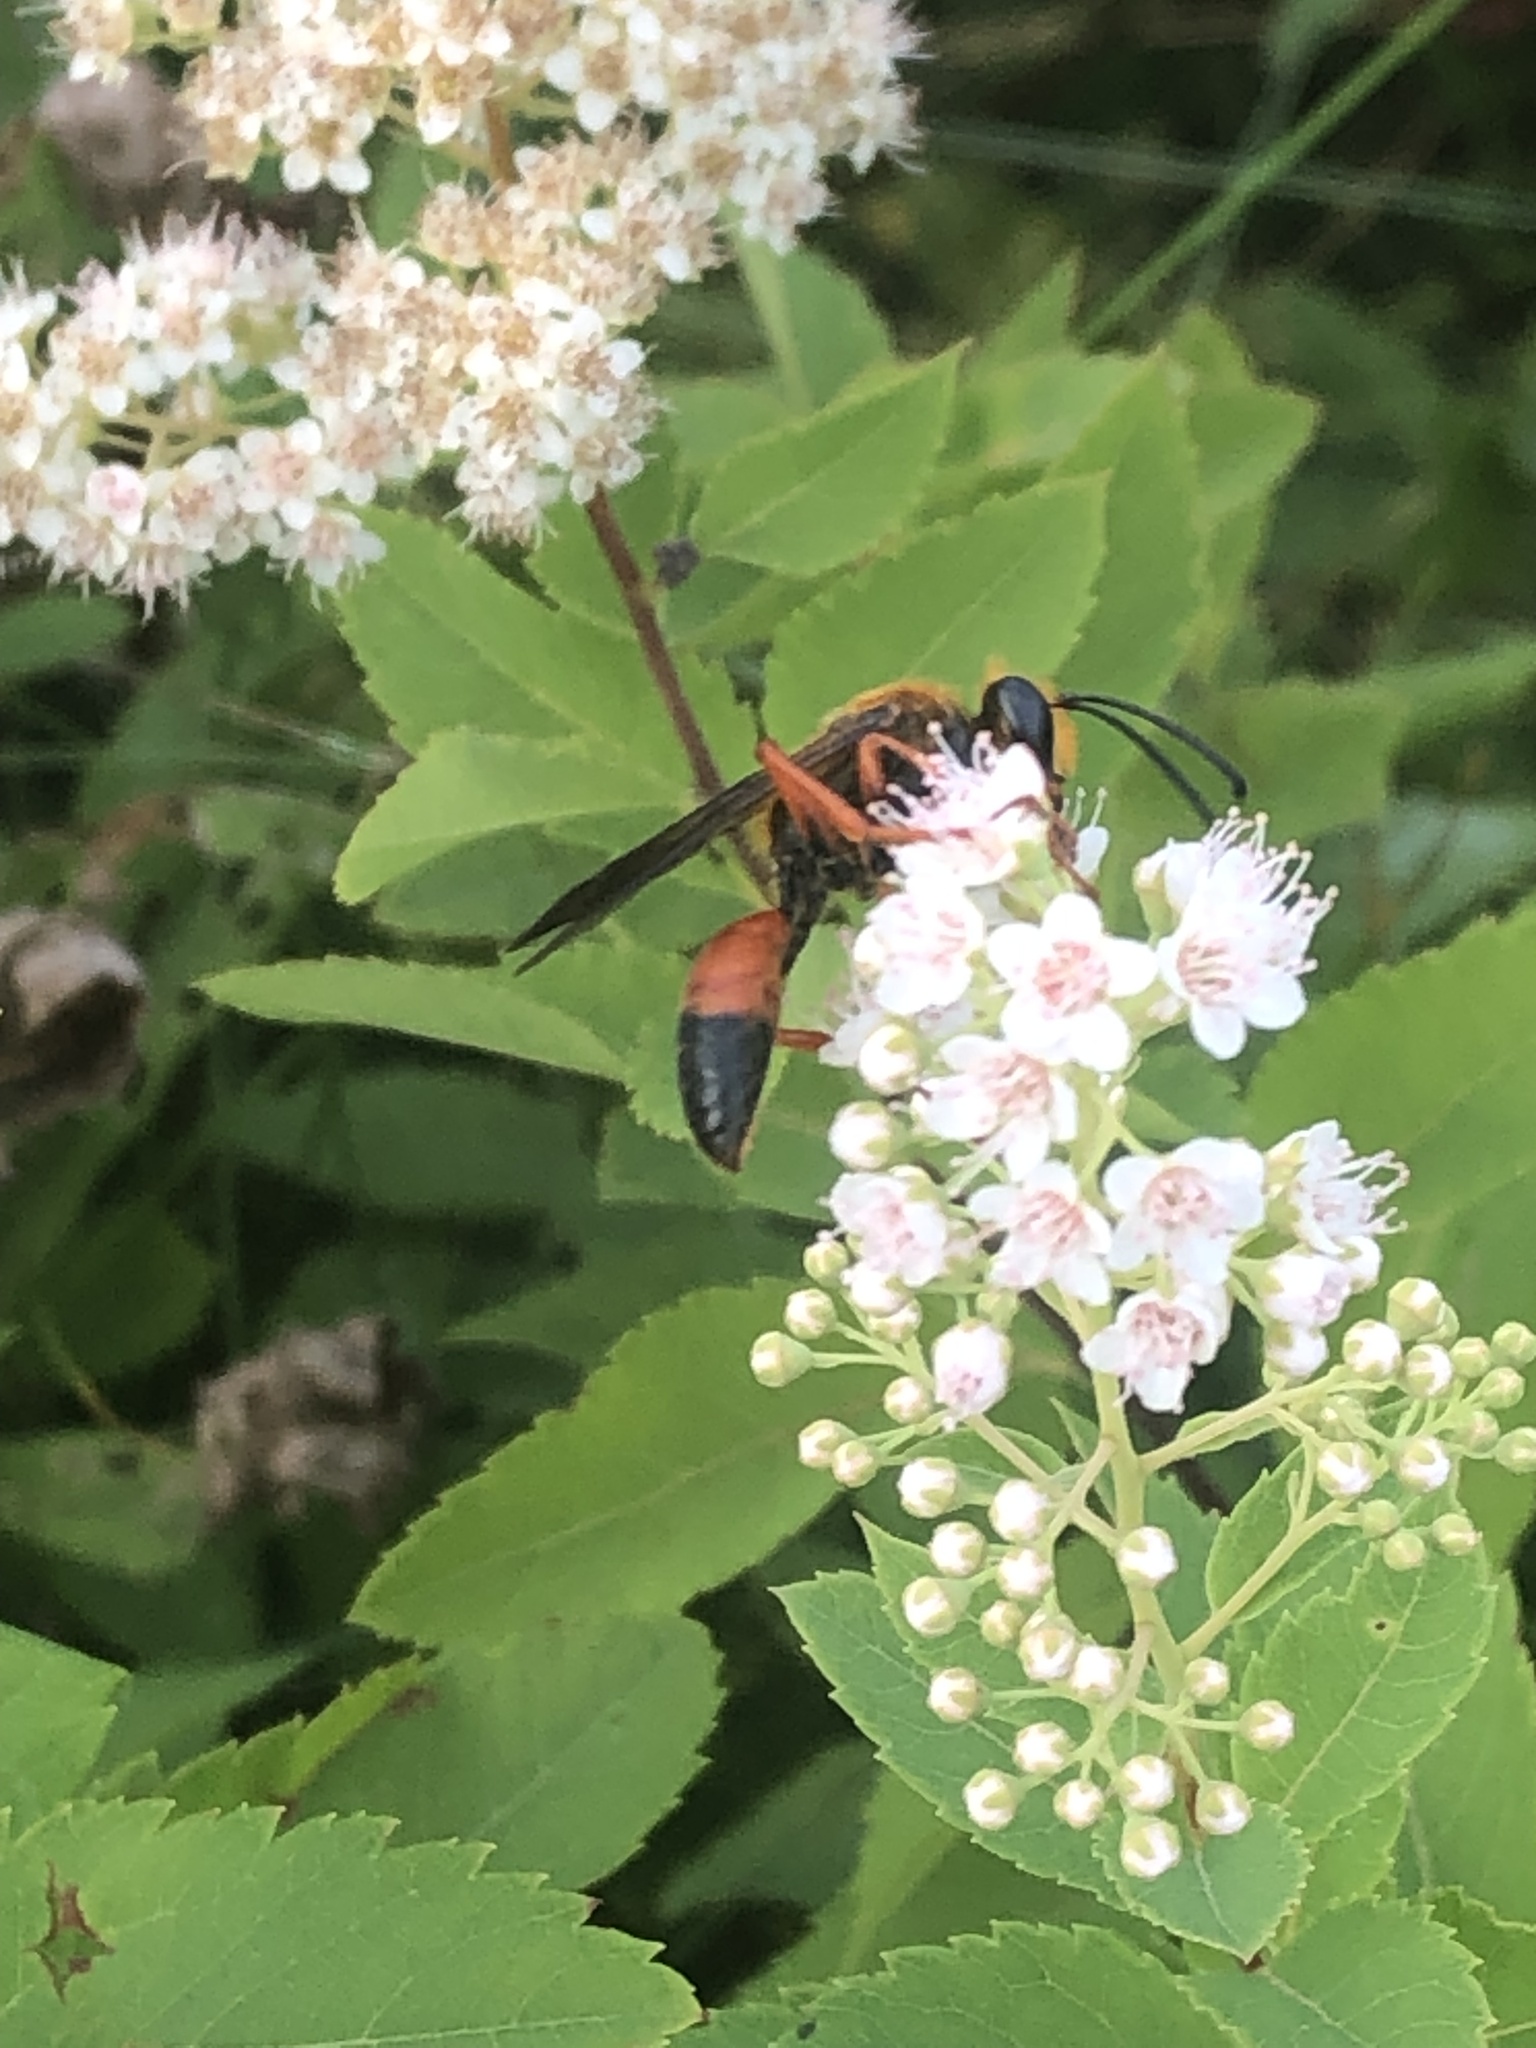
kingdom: Animalia
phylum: Arthropoda
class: Insecta
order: Hymenoptera
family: Sphecidae
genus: Sphex
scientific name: Sphex ichneumoneus
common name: Great golden digger wasp
